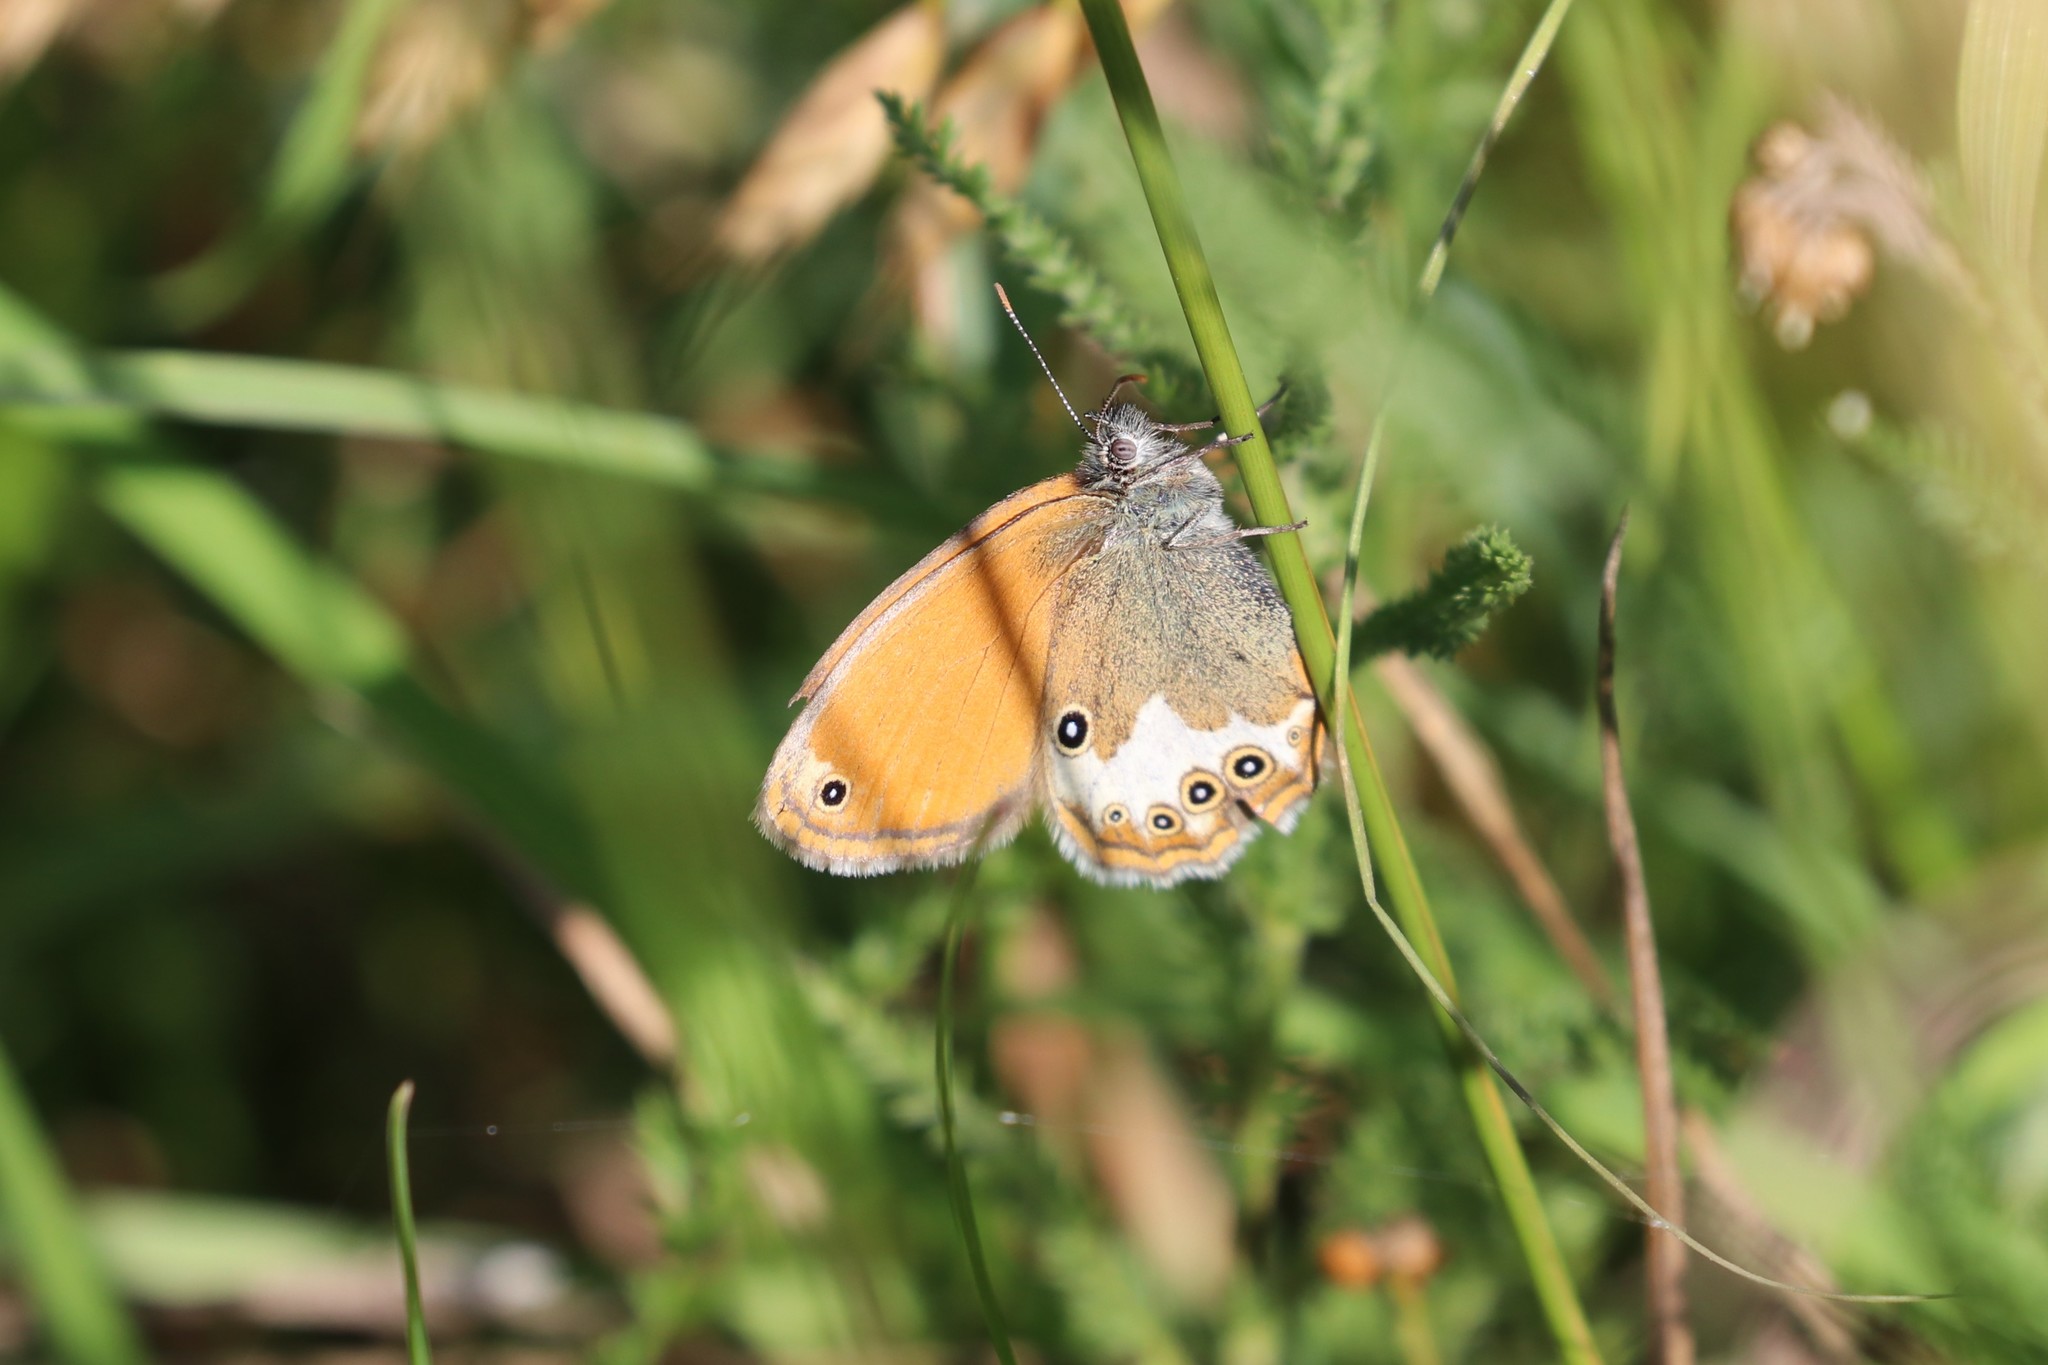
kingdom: Animalia
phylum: Arthropoda
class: Insecta
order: Lepidoptera
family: Nymphalidae
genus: Coenonympha
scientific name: Coenonympha arcania
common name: Pearly heath
